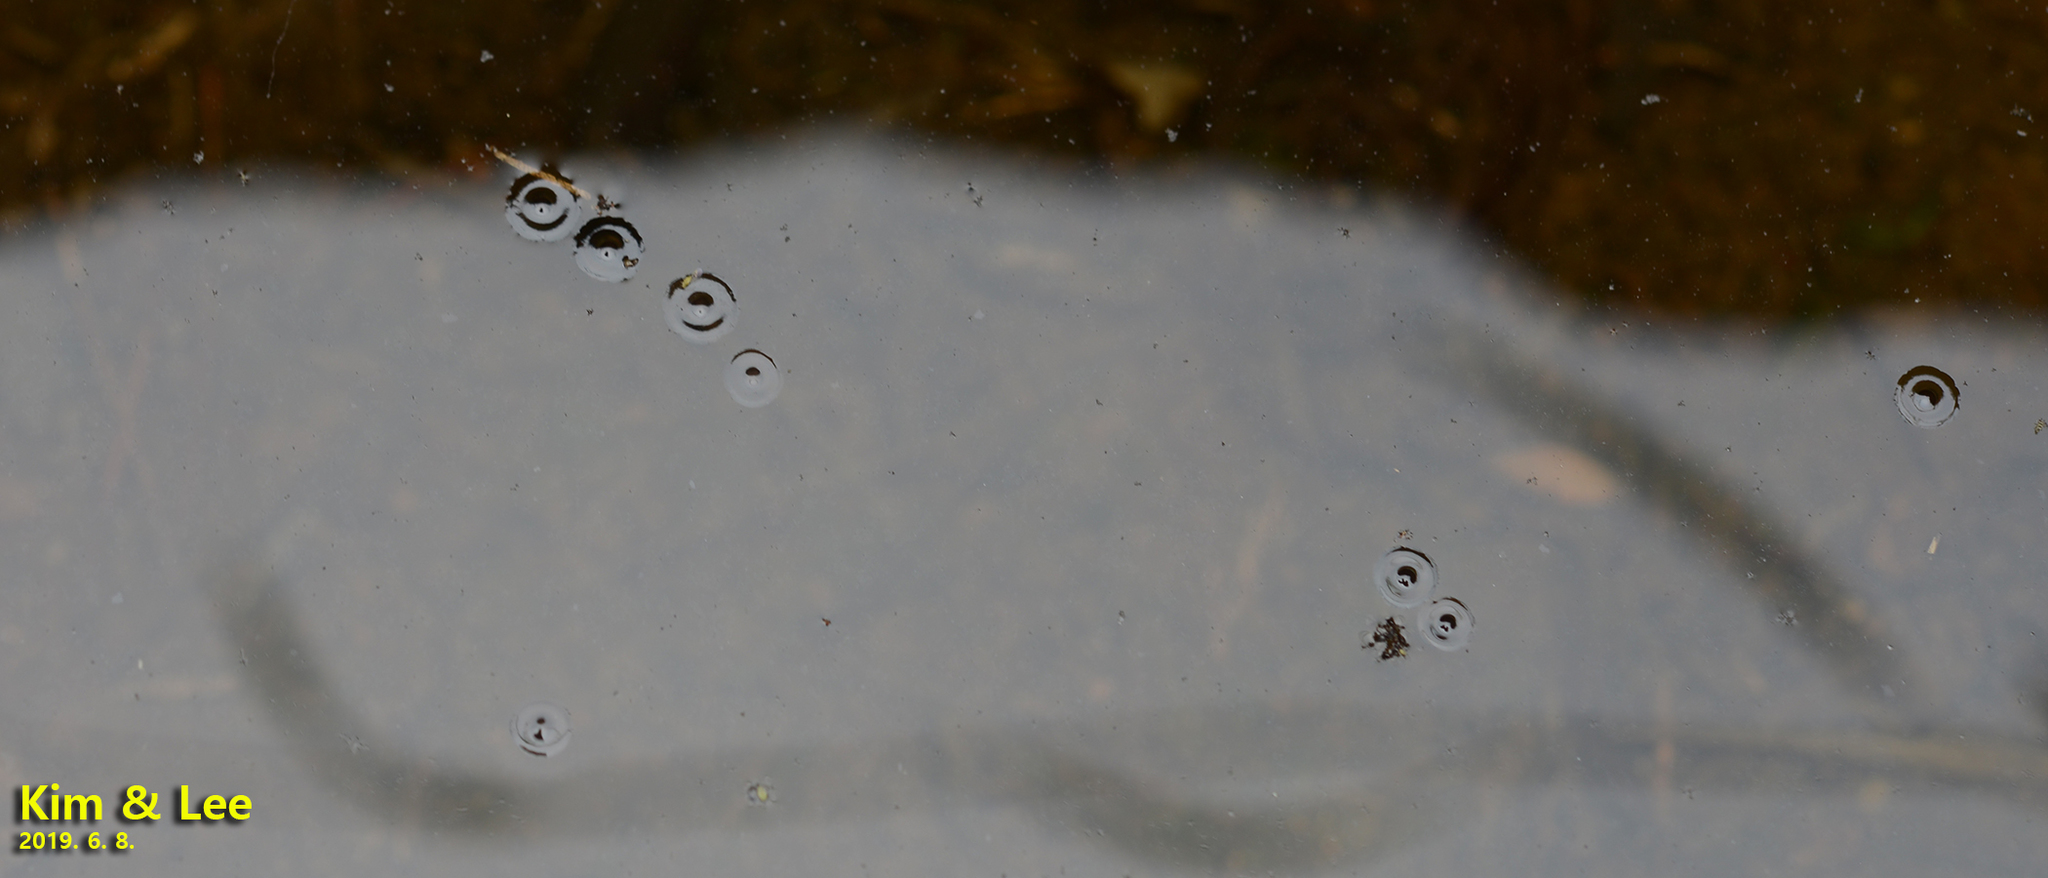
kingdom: Animalia
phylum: Chordata
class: Amphibia
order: Anura
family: Microhylidae
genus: Kaloula
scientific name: Kaloula borealis
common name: Boreal digging frog
